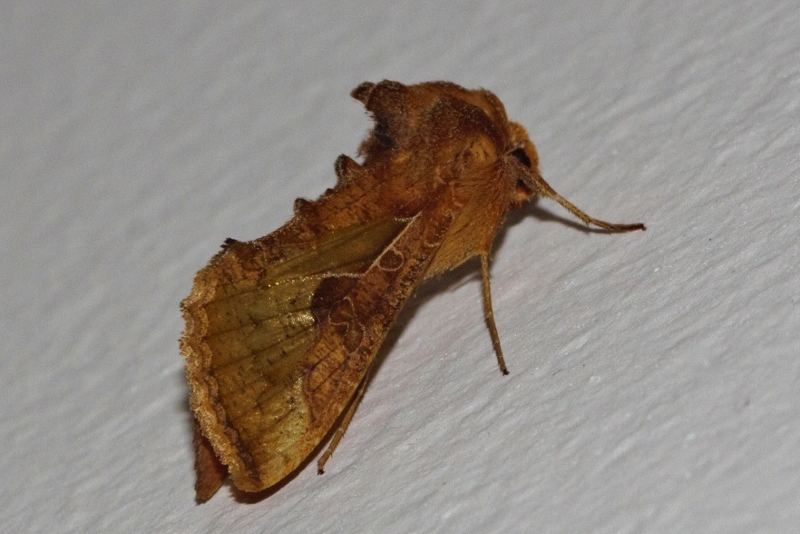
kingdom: Animalia
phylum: Arthropoda
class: Insecta
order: Lepidoptera
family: Noctuidae
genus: Thysanoplusia
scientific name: Thysanoplusia orichalcea
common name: Slender burnished brass, golden plusia
